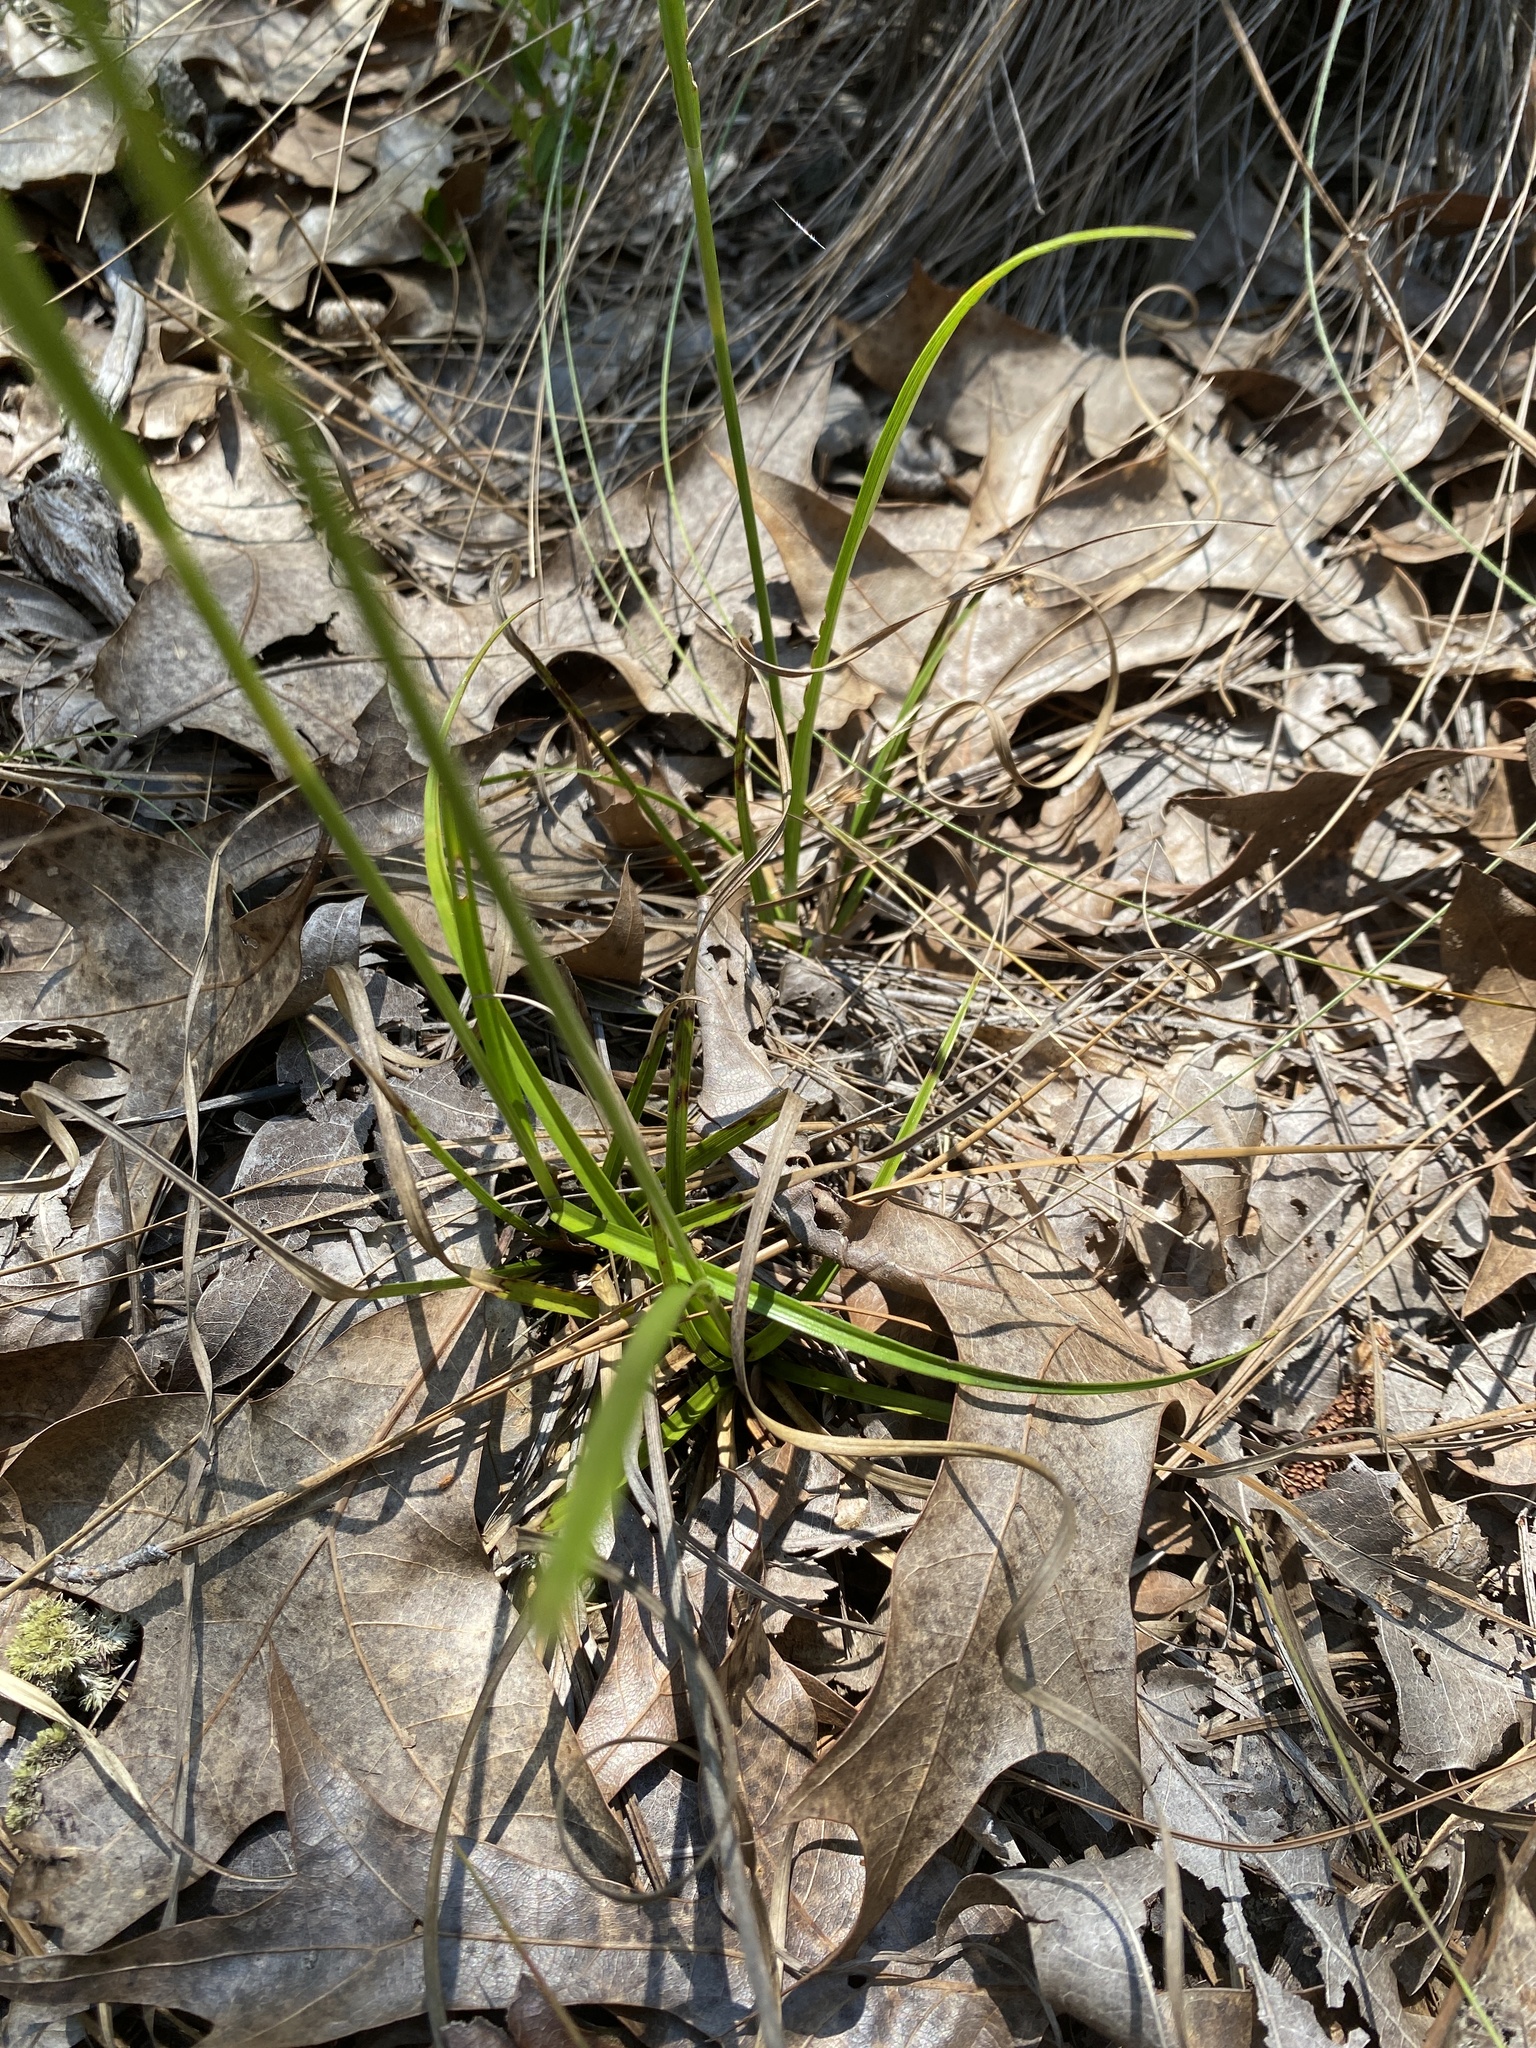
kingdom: Plantae
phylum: Tracheophyta
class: Liliopsida
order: Poales
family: Cyperaceae
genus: Rhynchospora
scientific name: Rhynchospora grayi
